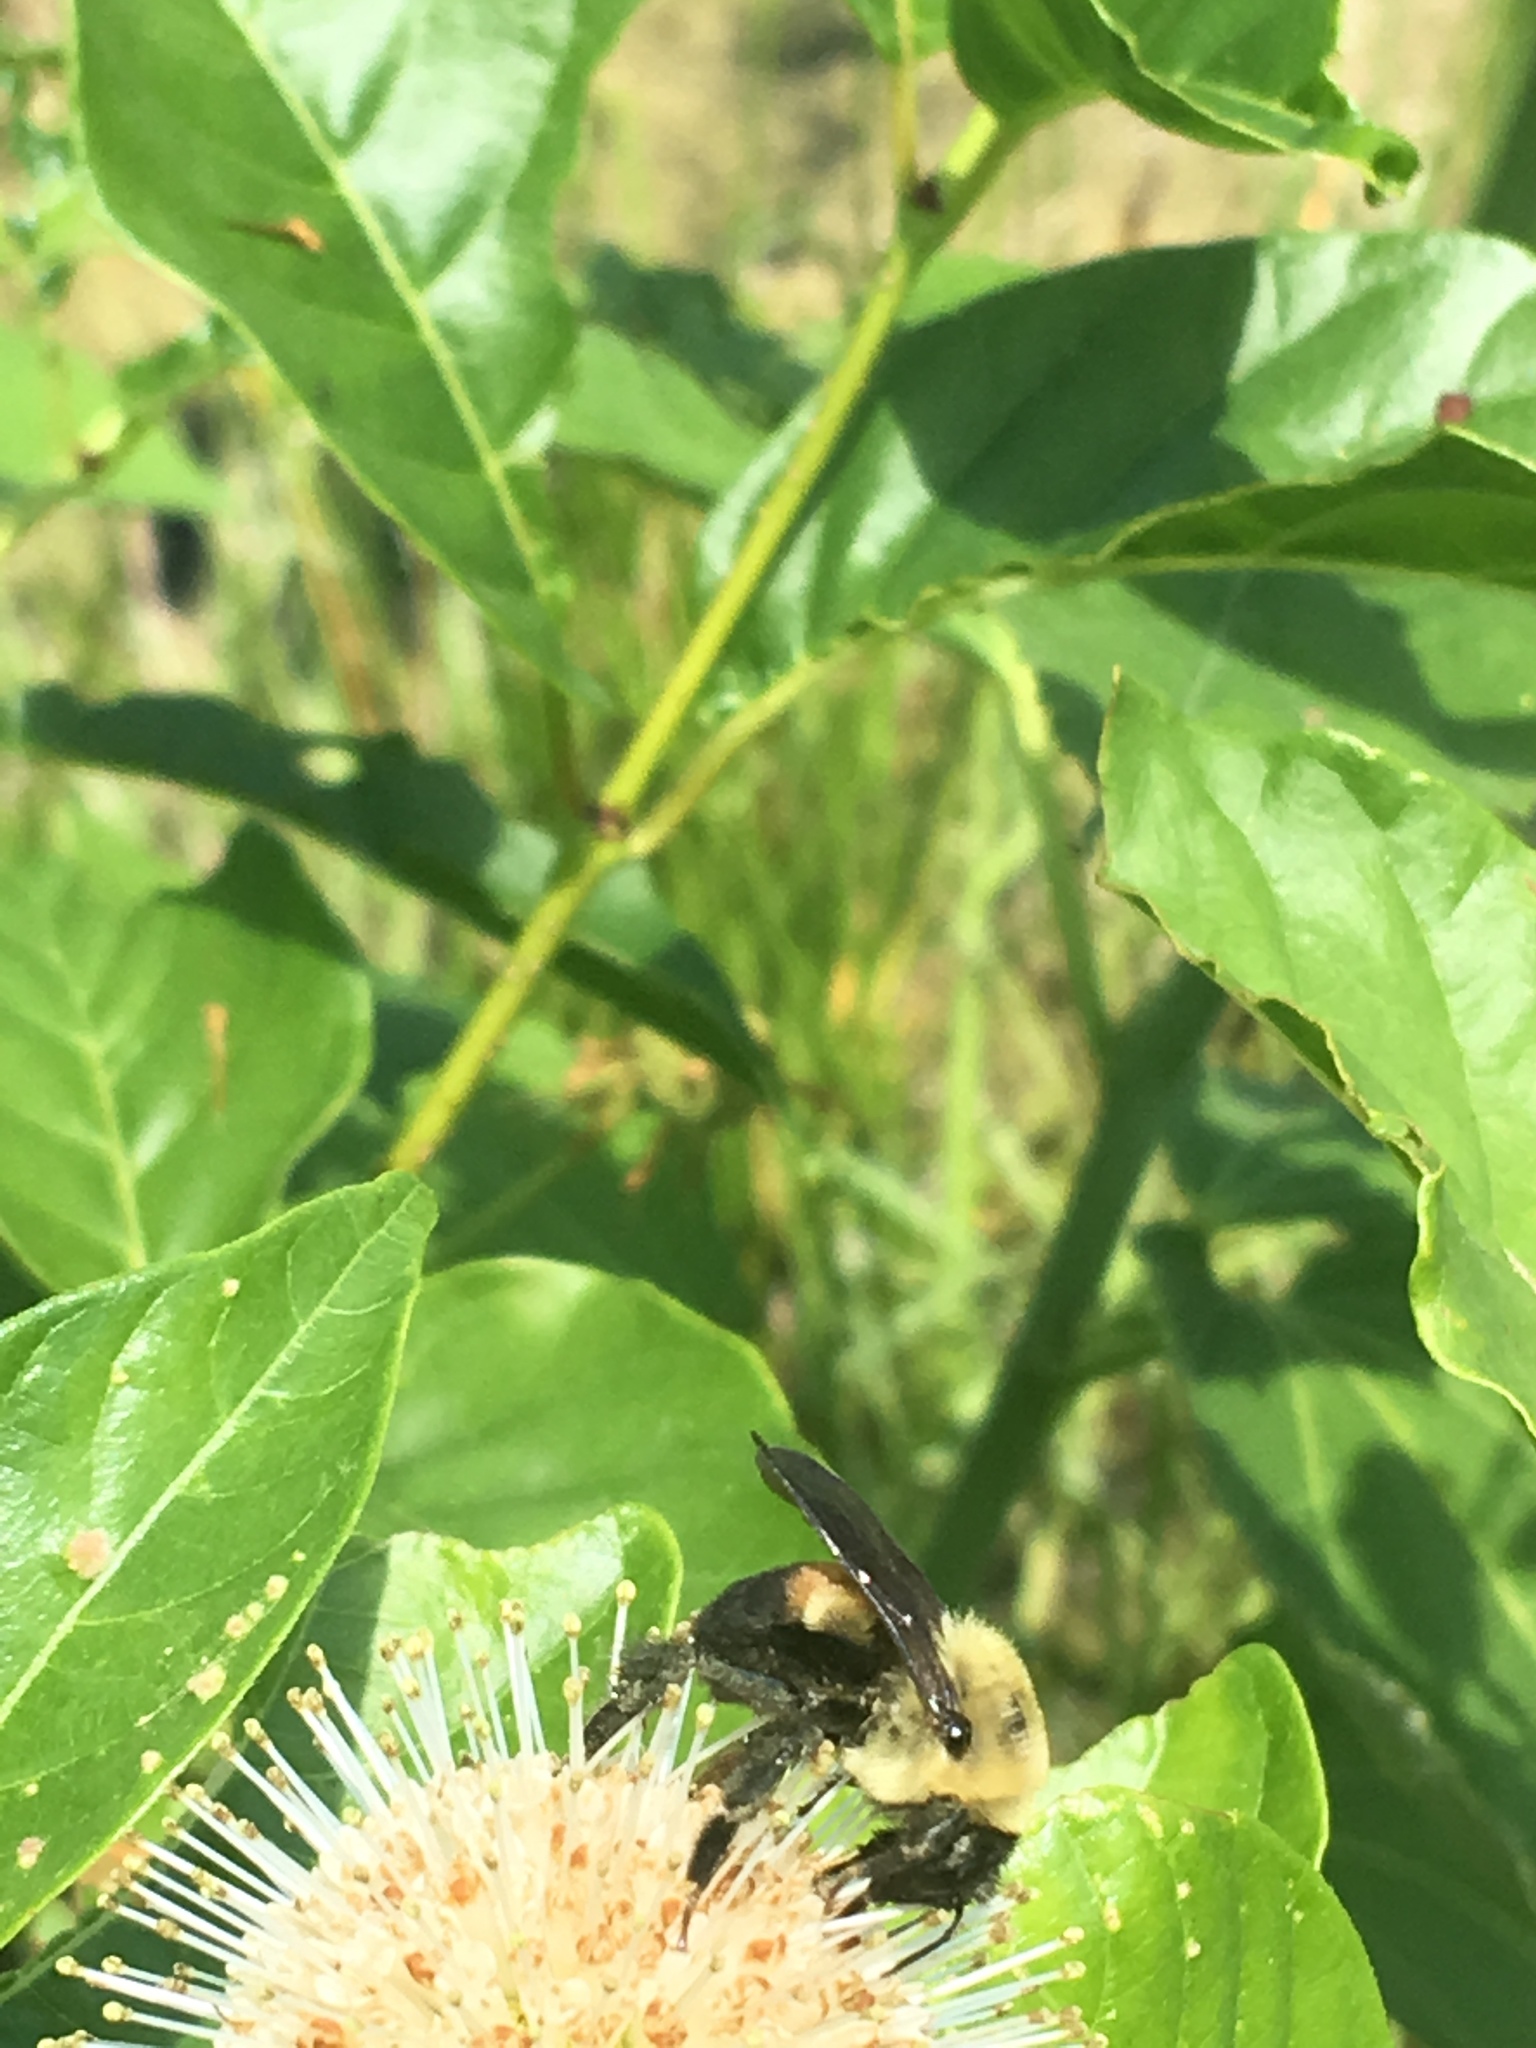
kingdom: Animalia
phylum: Arthropoda
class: Insecta
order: Hymenoptera
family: Apidae
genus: Bombus
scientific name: Bombus griseocollis
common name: Brown-belted bumble bee
